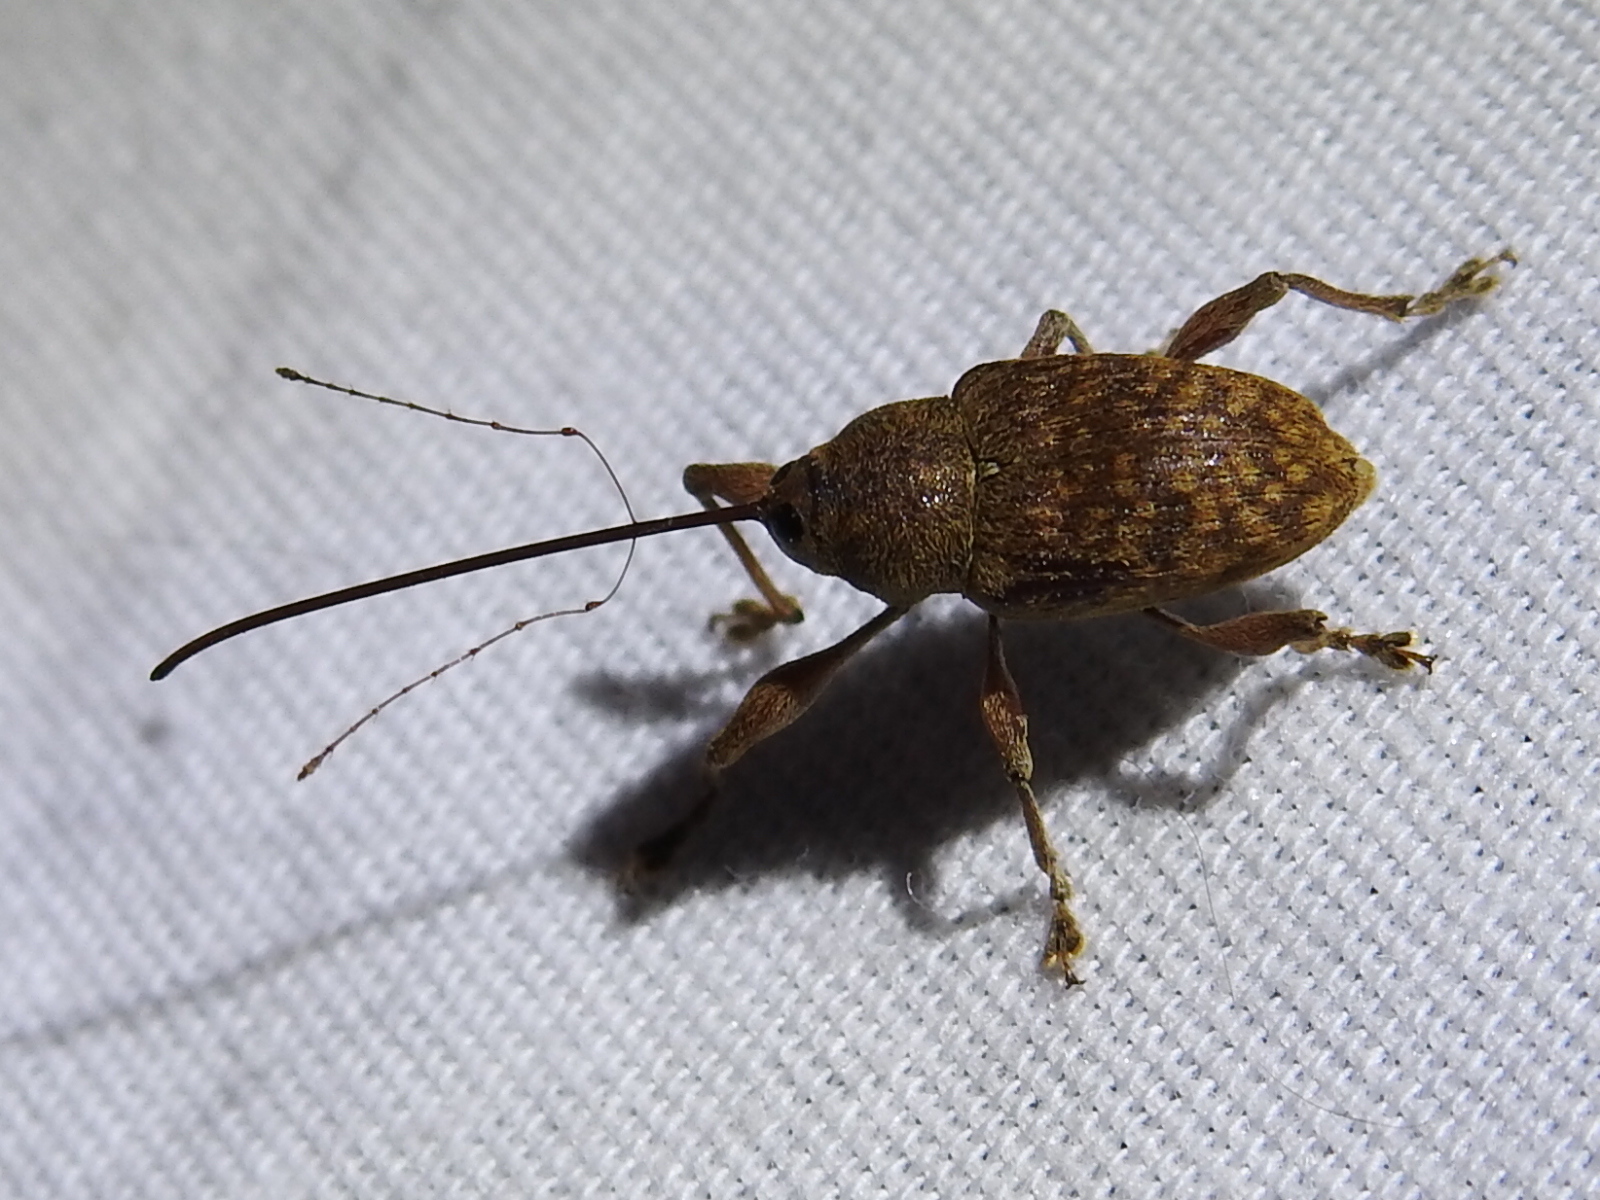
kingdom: Animalia
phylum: Arthropoda
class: Insecta
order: Coleoptera
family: Curculionidae
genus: Curculio
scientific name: Curculio
